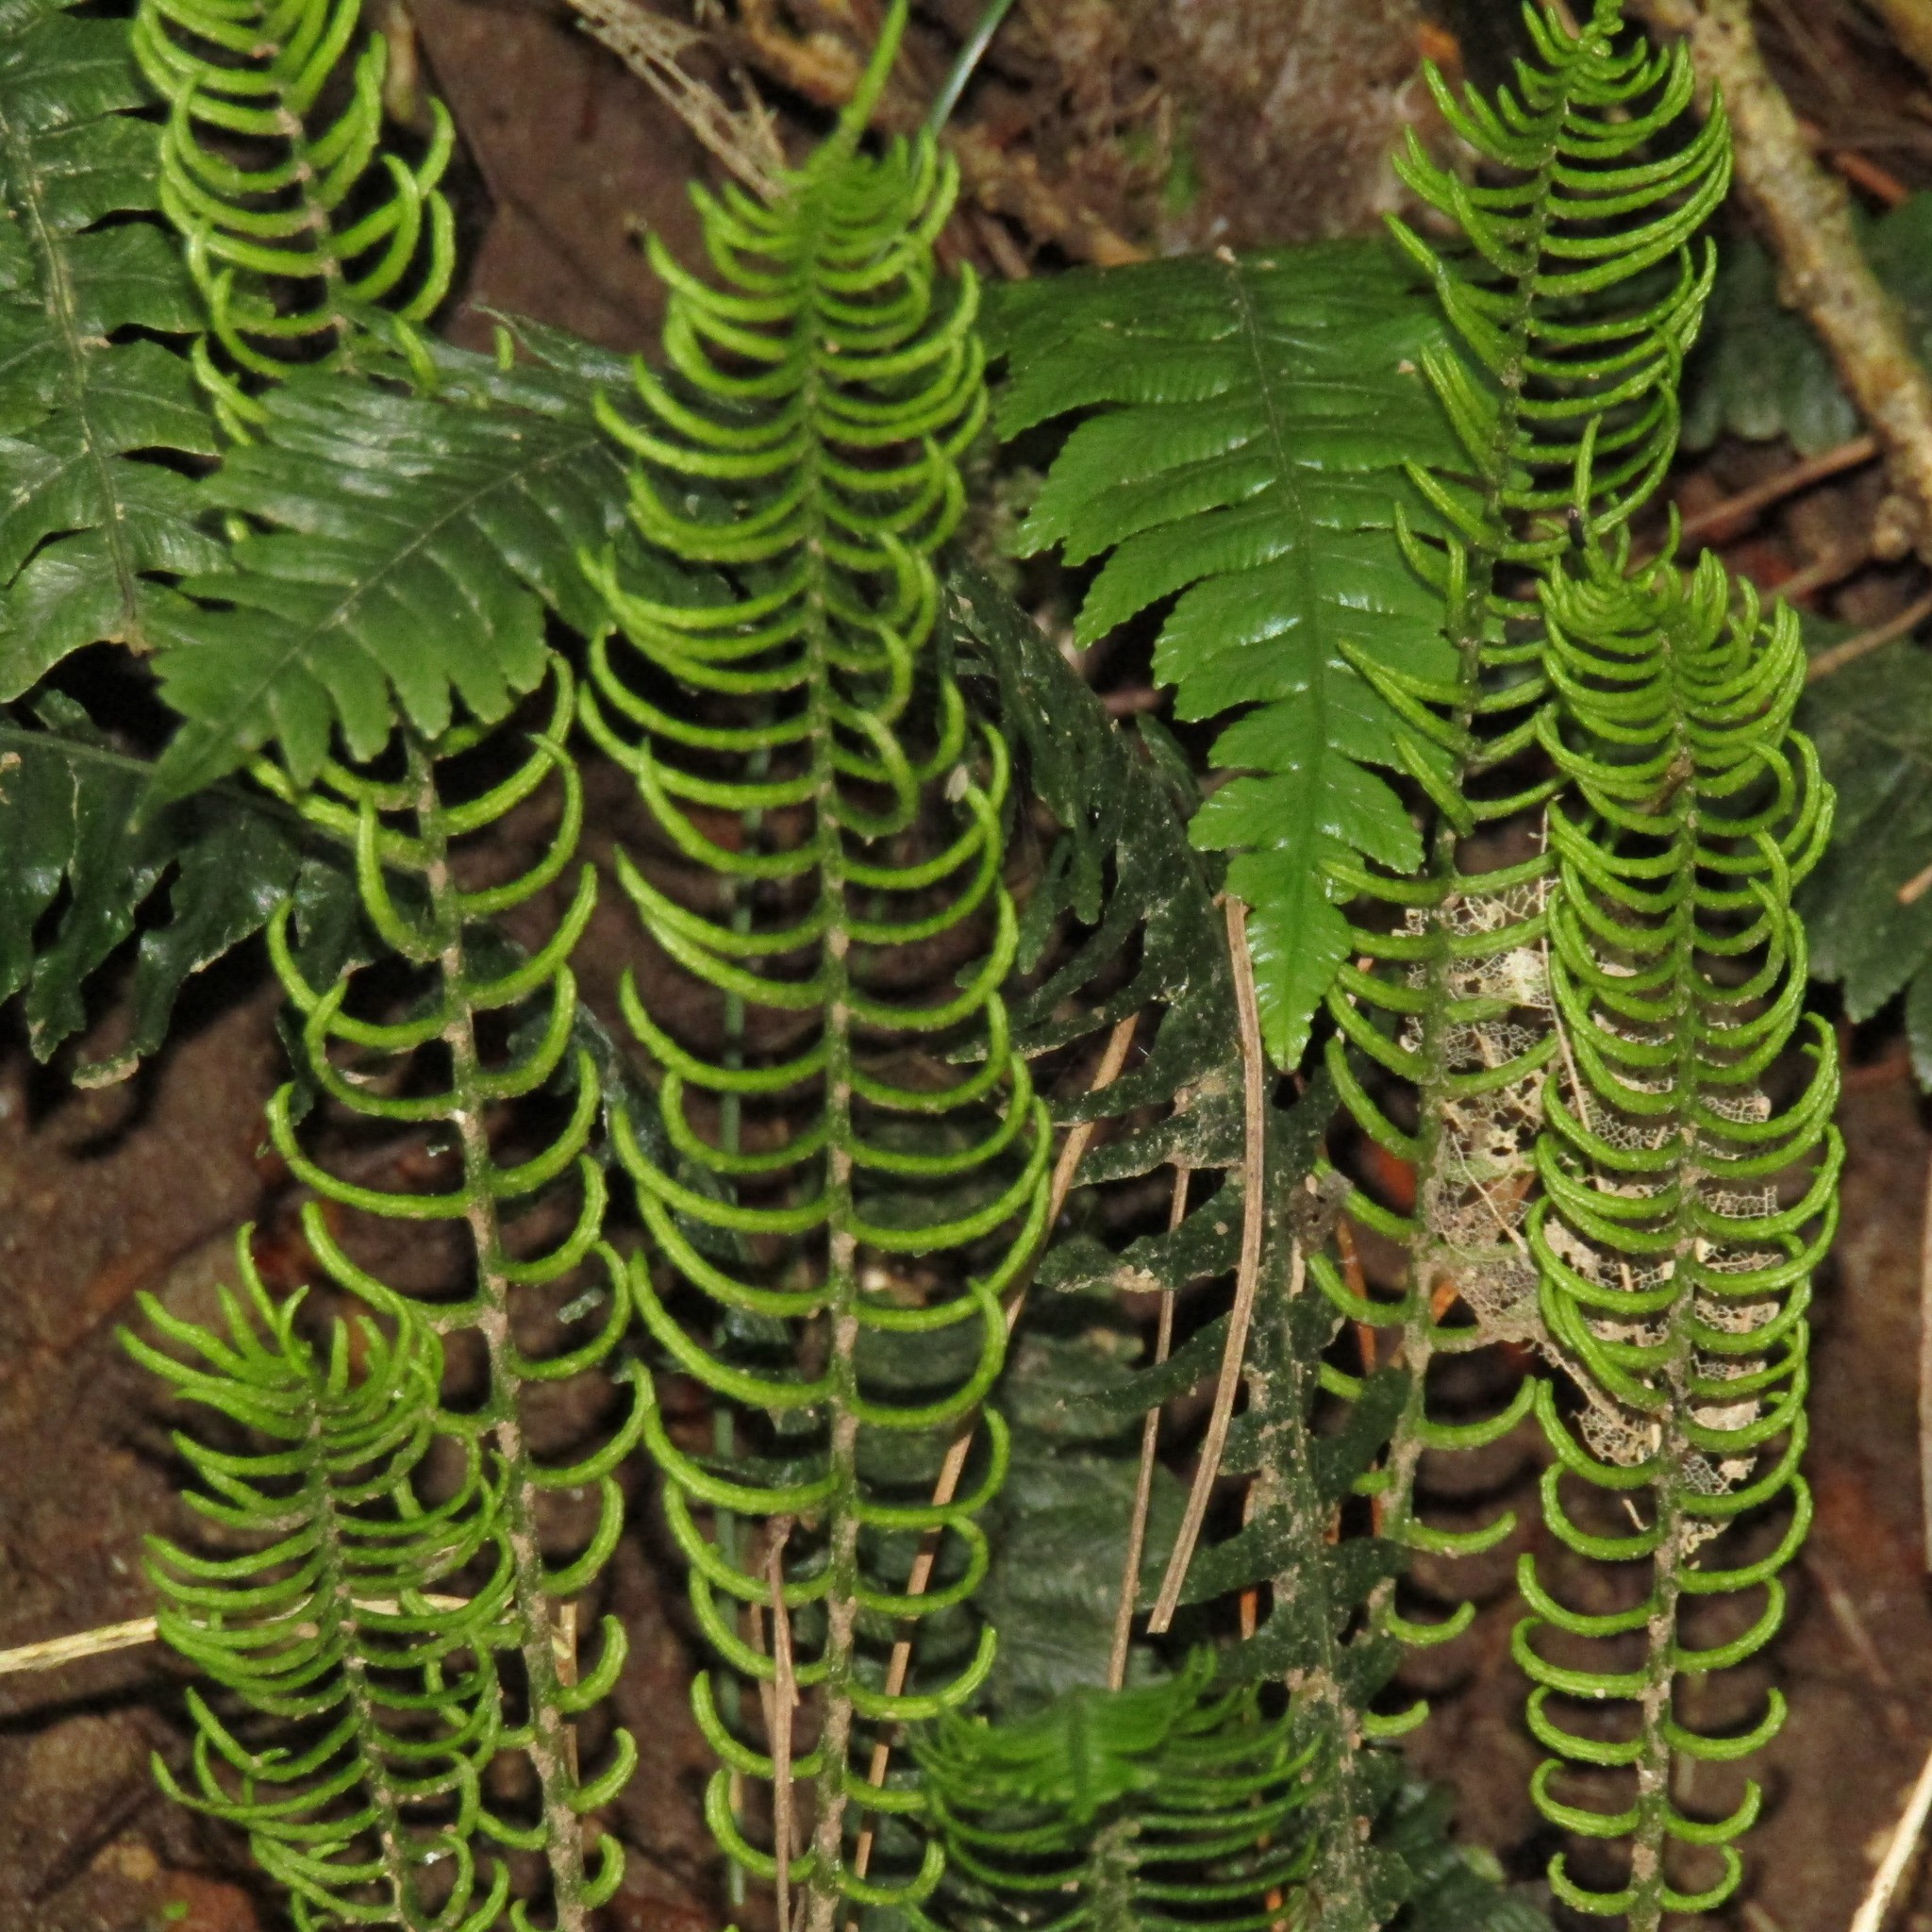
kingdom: Plantae
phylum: Tracheophyta
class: Polypodiopsida
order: Polypodiales
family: Blechnaceae
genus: Austroblechnum
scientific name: Austroblechnum lanceolatum
